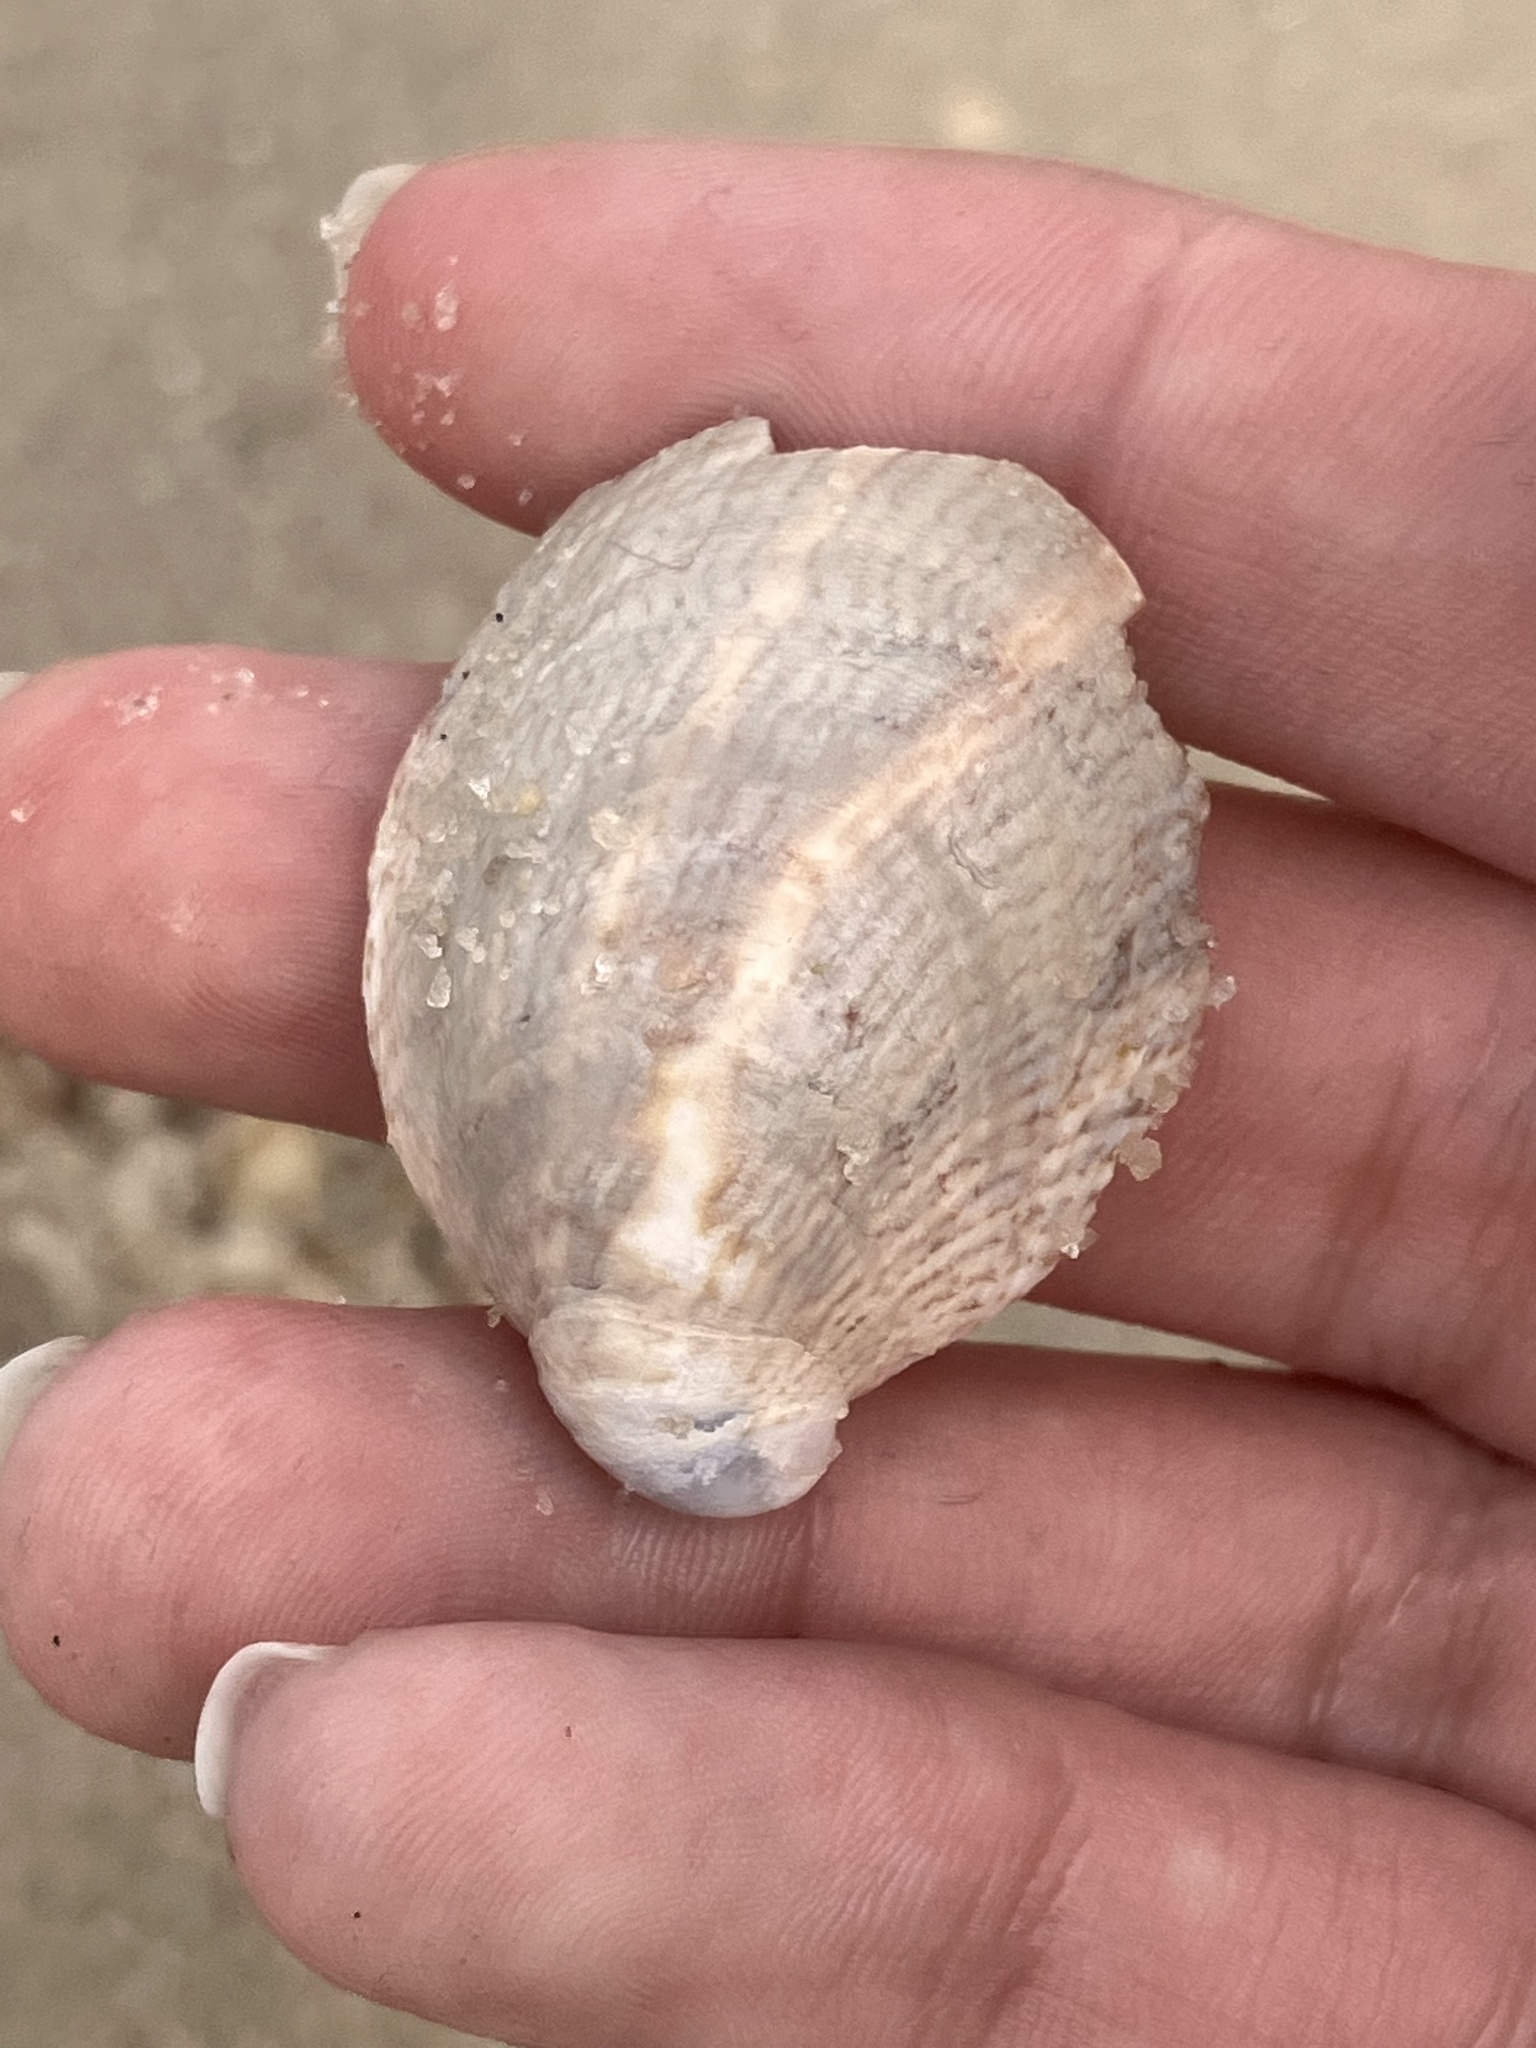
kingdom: Animalia
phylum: Mollusca
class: Gastropoda
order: Littorinimorpha
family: Calyptraeidae
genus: Crepidula
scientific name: Crepidula fornicata
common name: Slipper limpet
